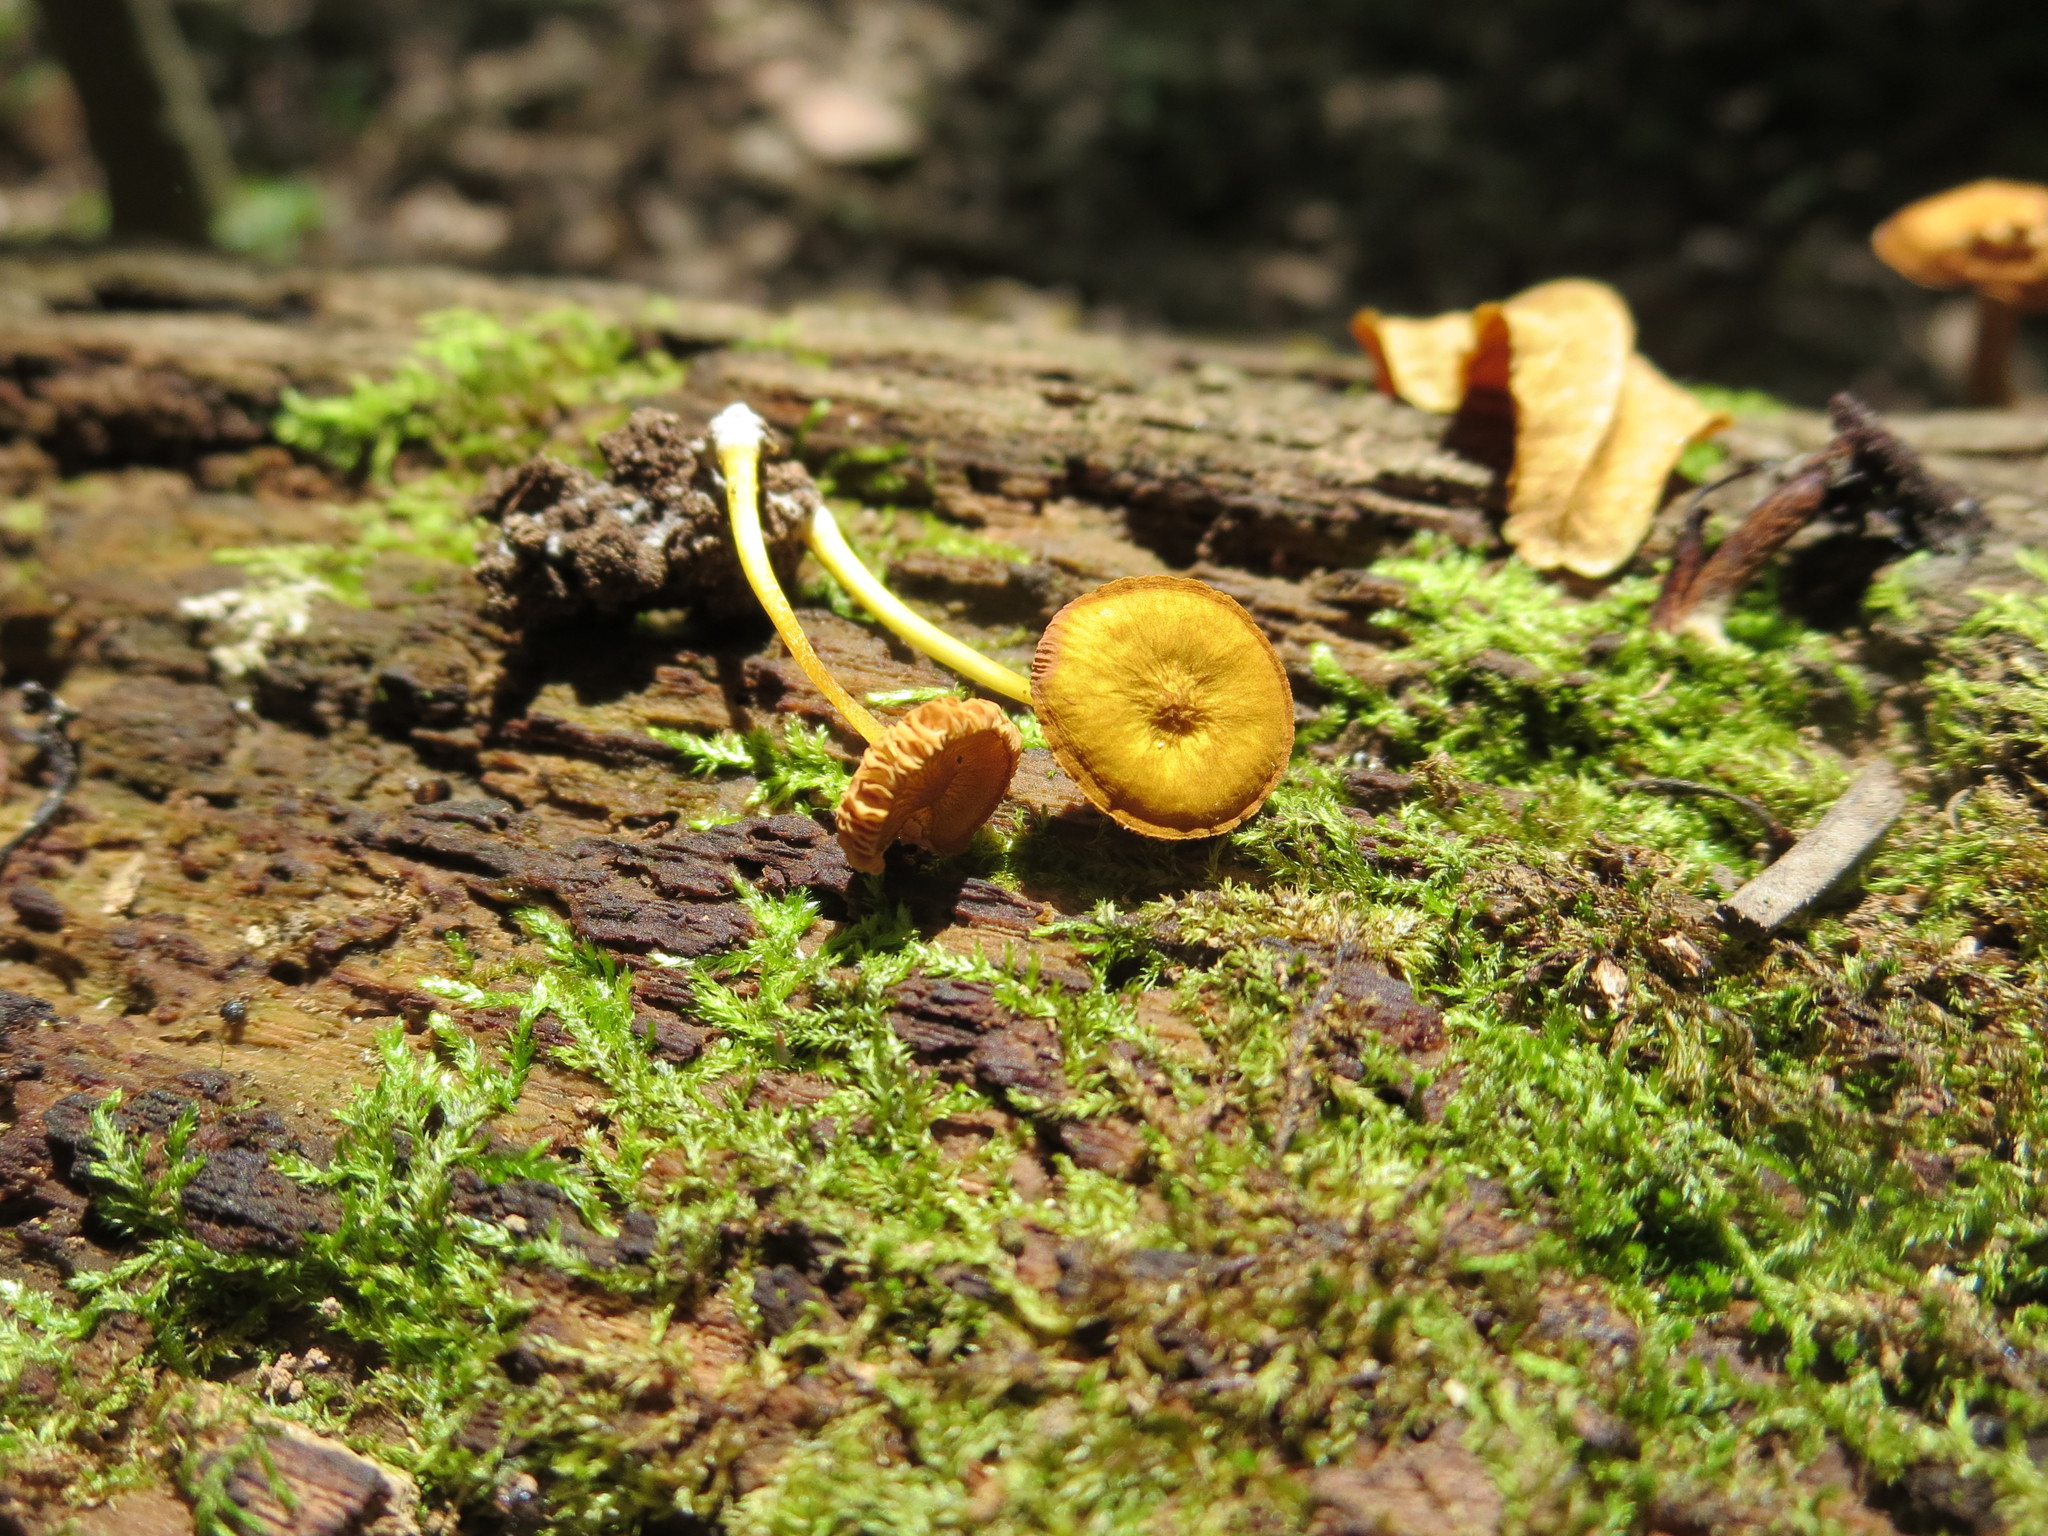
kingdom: Fungi
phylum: Basidiomycota
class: Agaricomycetes
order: Agaricales
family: Pluteaceae
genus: Pluteus
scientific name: Pluteus chrysophlebius
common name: Yellow deer mushroom
